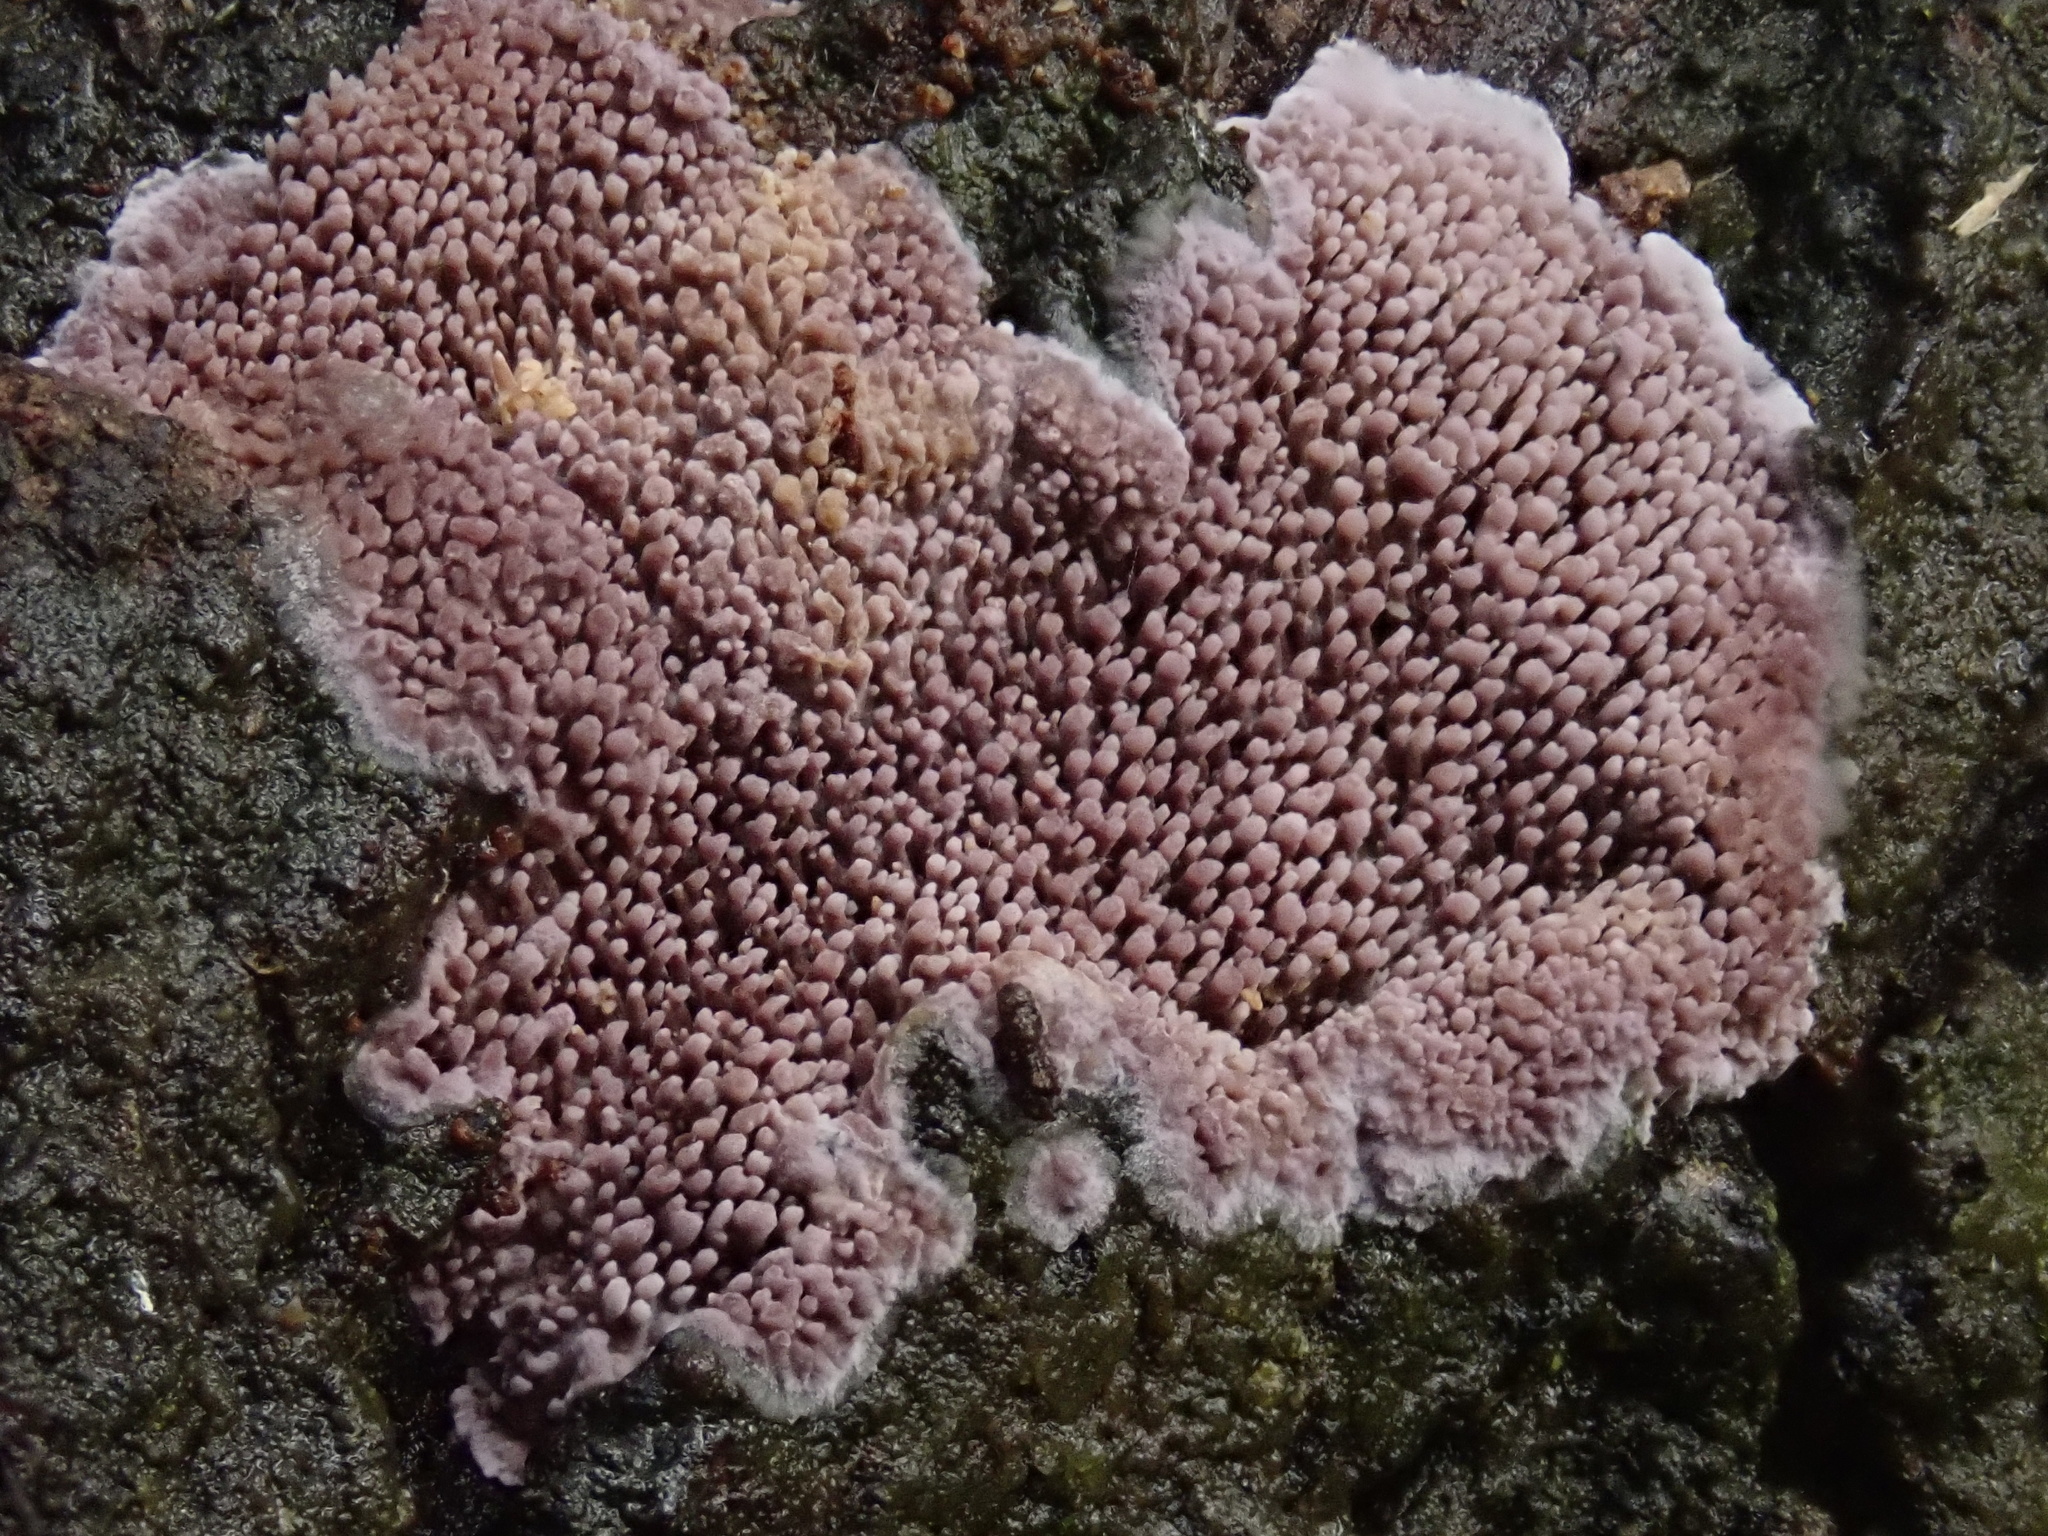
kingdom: Fungi
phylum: Basidiomycota
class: Agaricomycetes
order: Polyporales
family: Phanerochaetaceae
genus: Phlebiopsis
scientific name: Phlebiopsis dregeana
